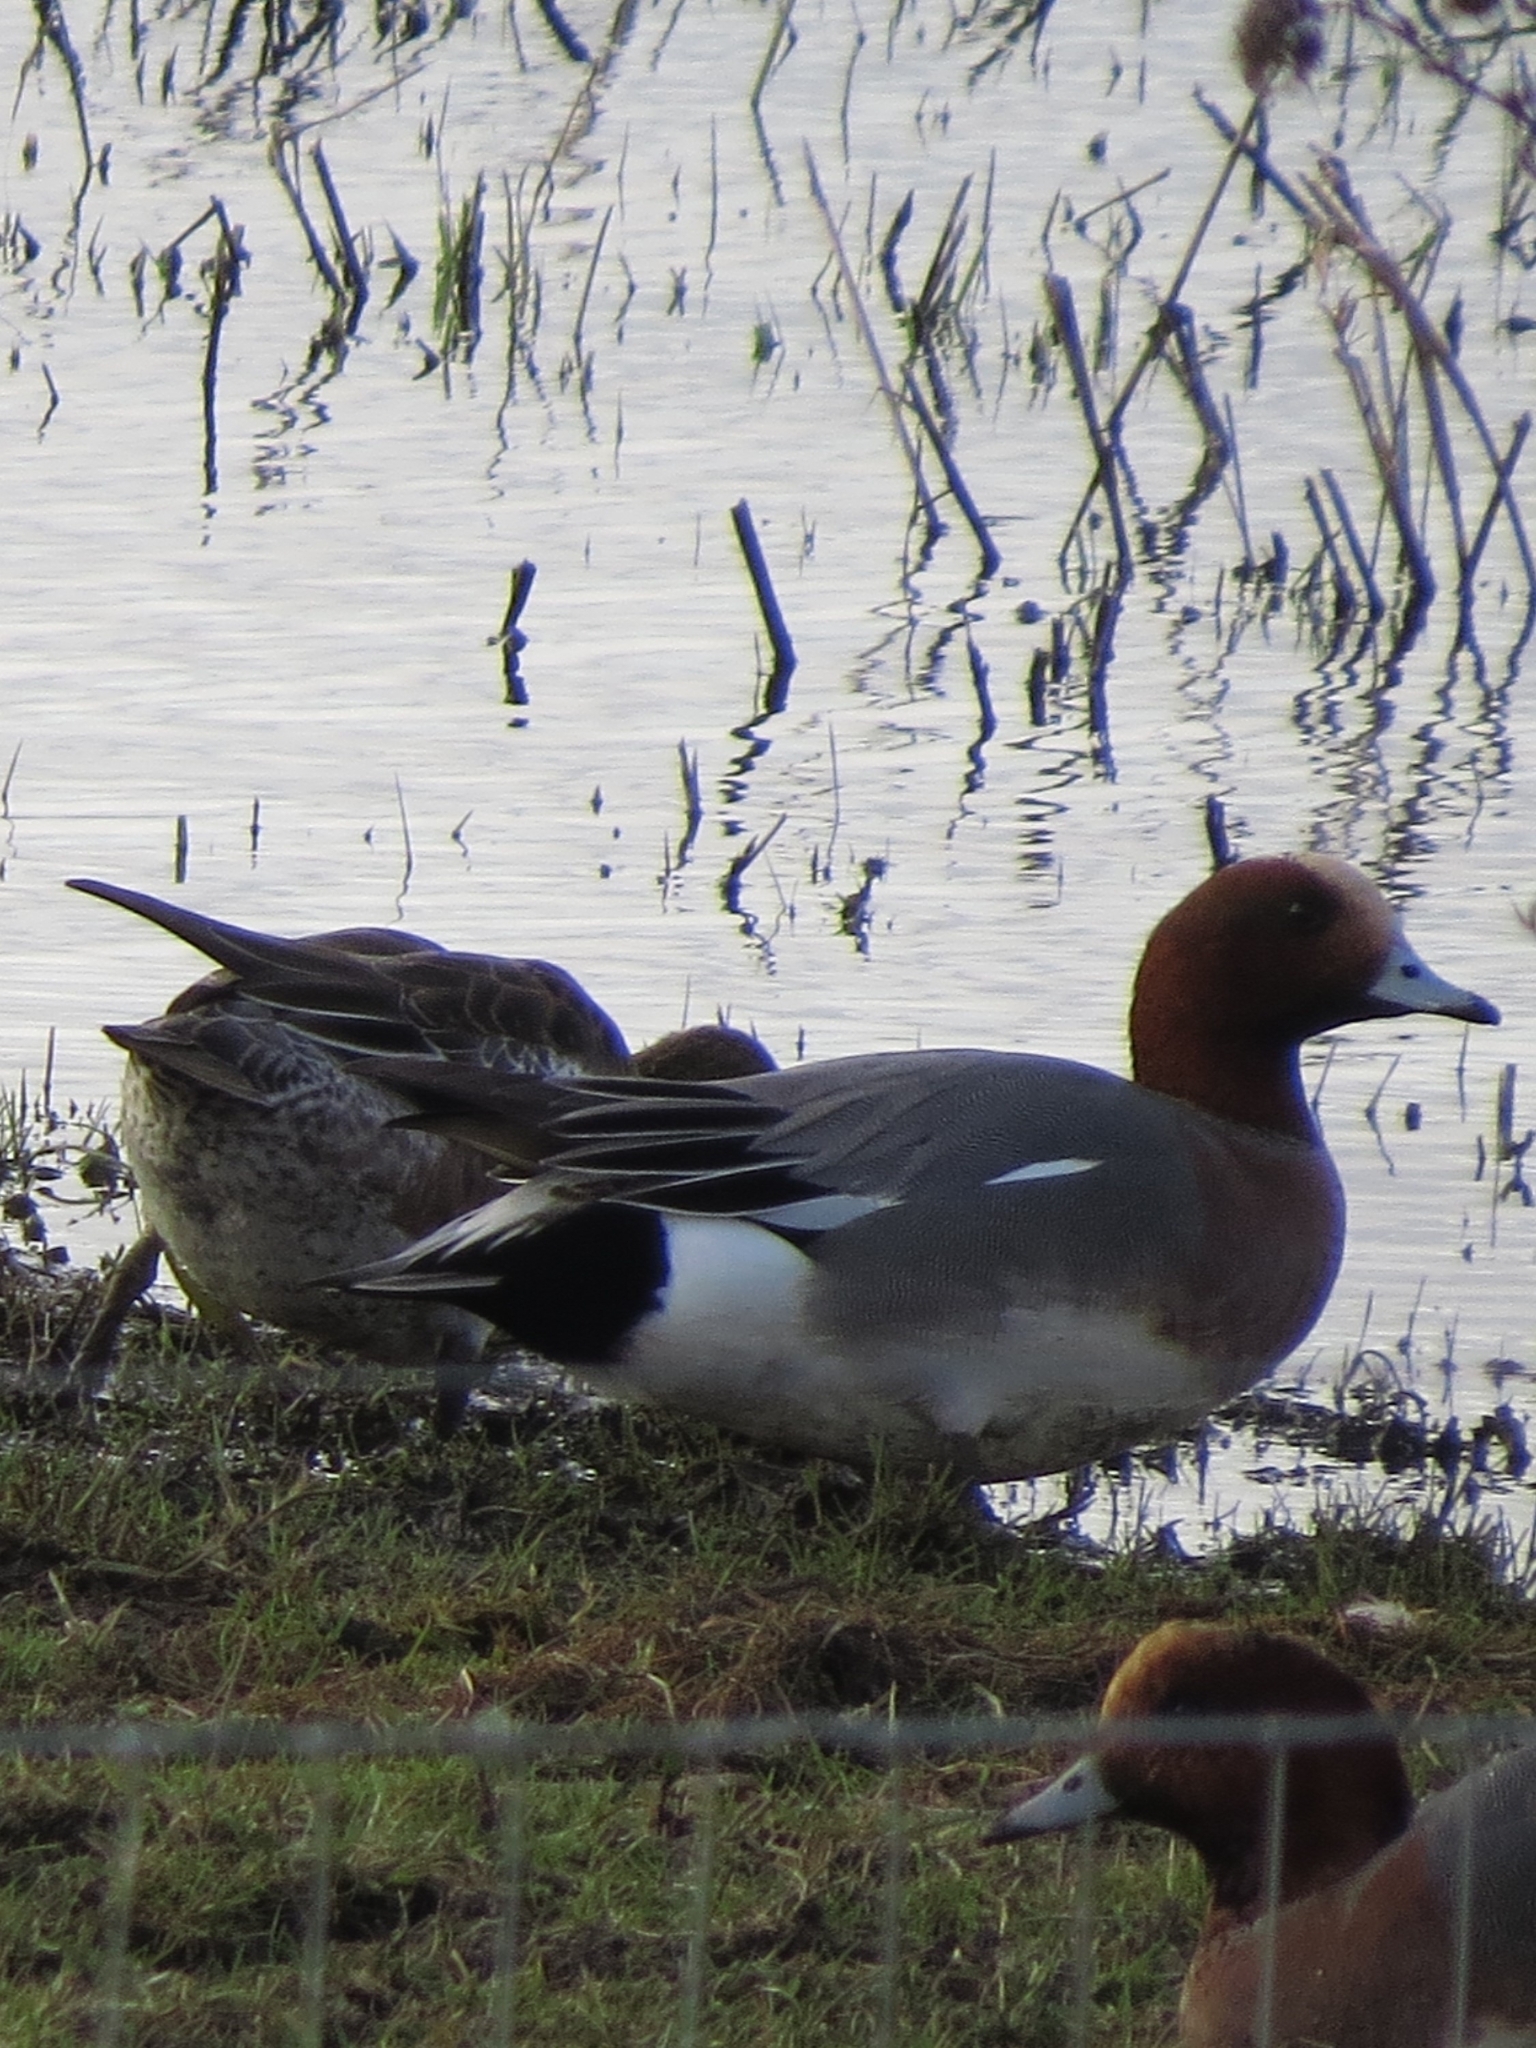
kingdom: Animalia
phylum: Chordata
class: Aves
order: Anseriformes
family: Anatidae
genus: Mareca
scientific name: Mareca penelope
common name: Eurasian wigeon
